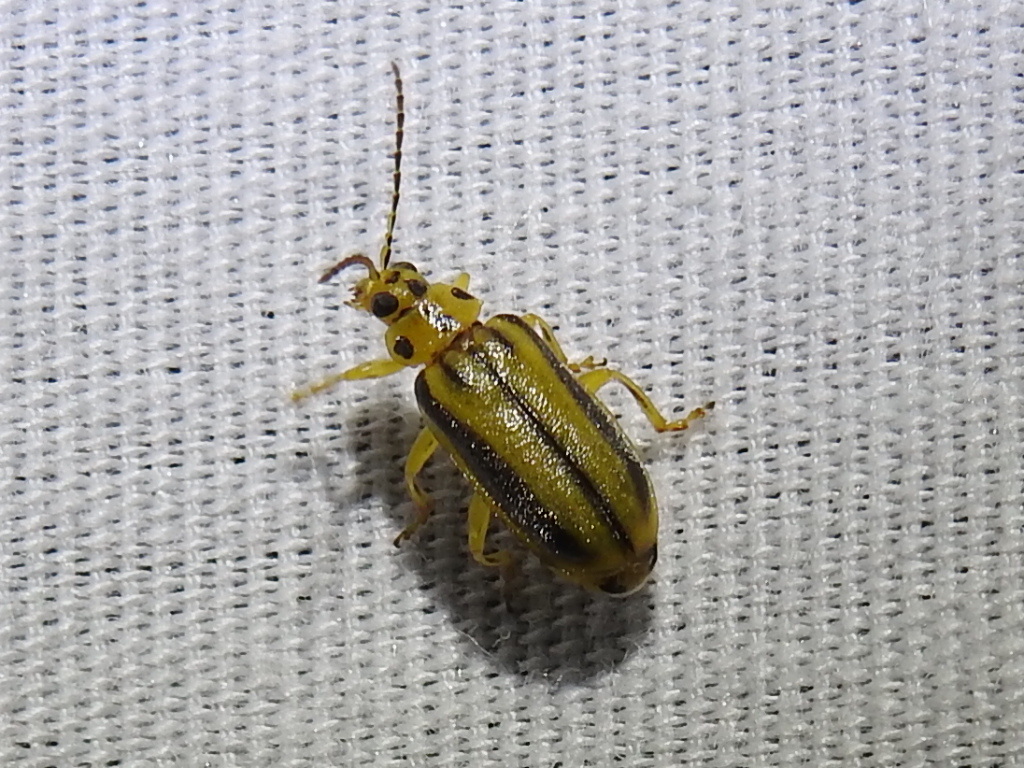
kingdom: Animalia
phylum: Arthropoda
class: Insecta
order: Coleoptera
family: Chrysomelidae
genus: Xanthogaleruca
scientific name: Xanthogaleruca luteola
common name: Elm leaf beetle
